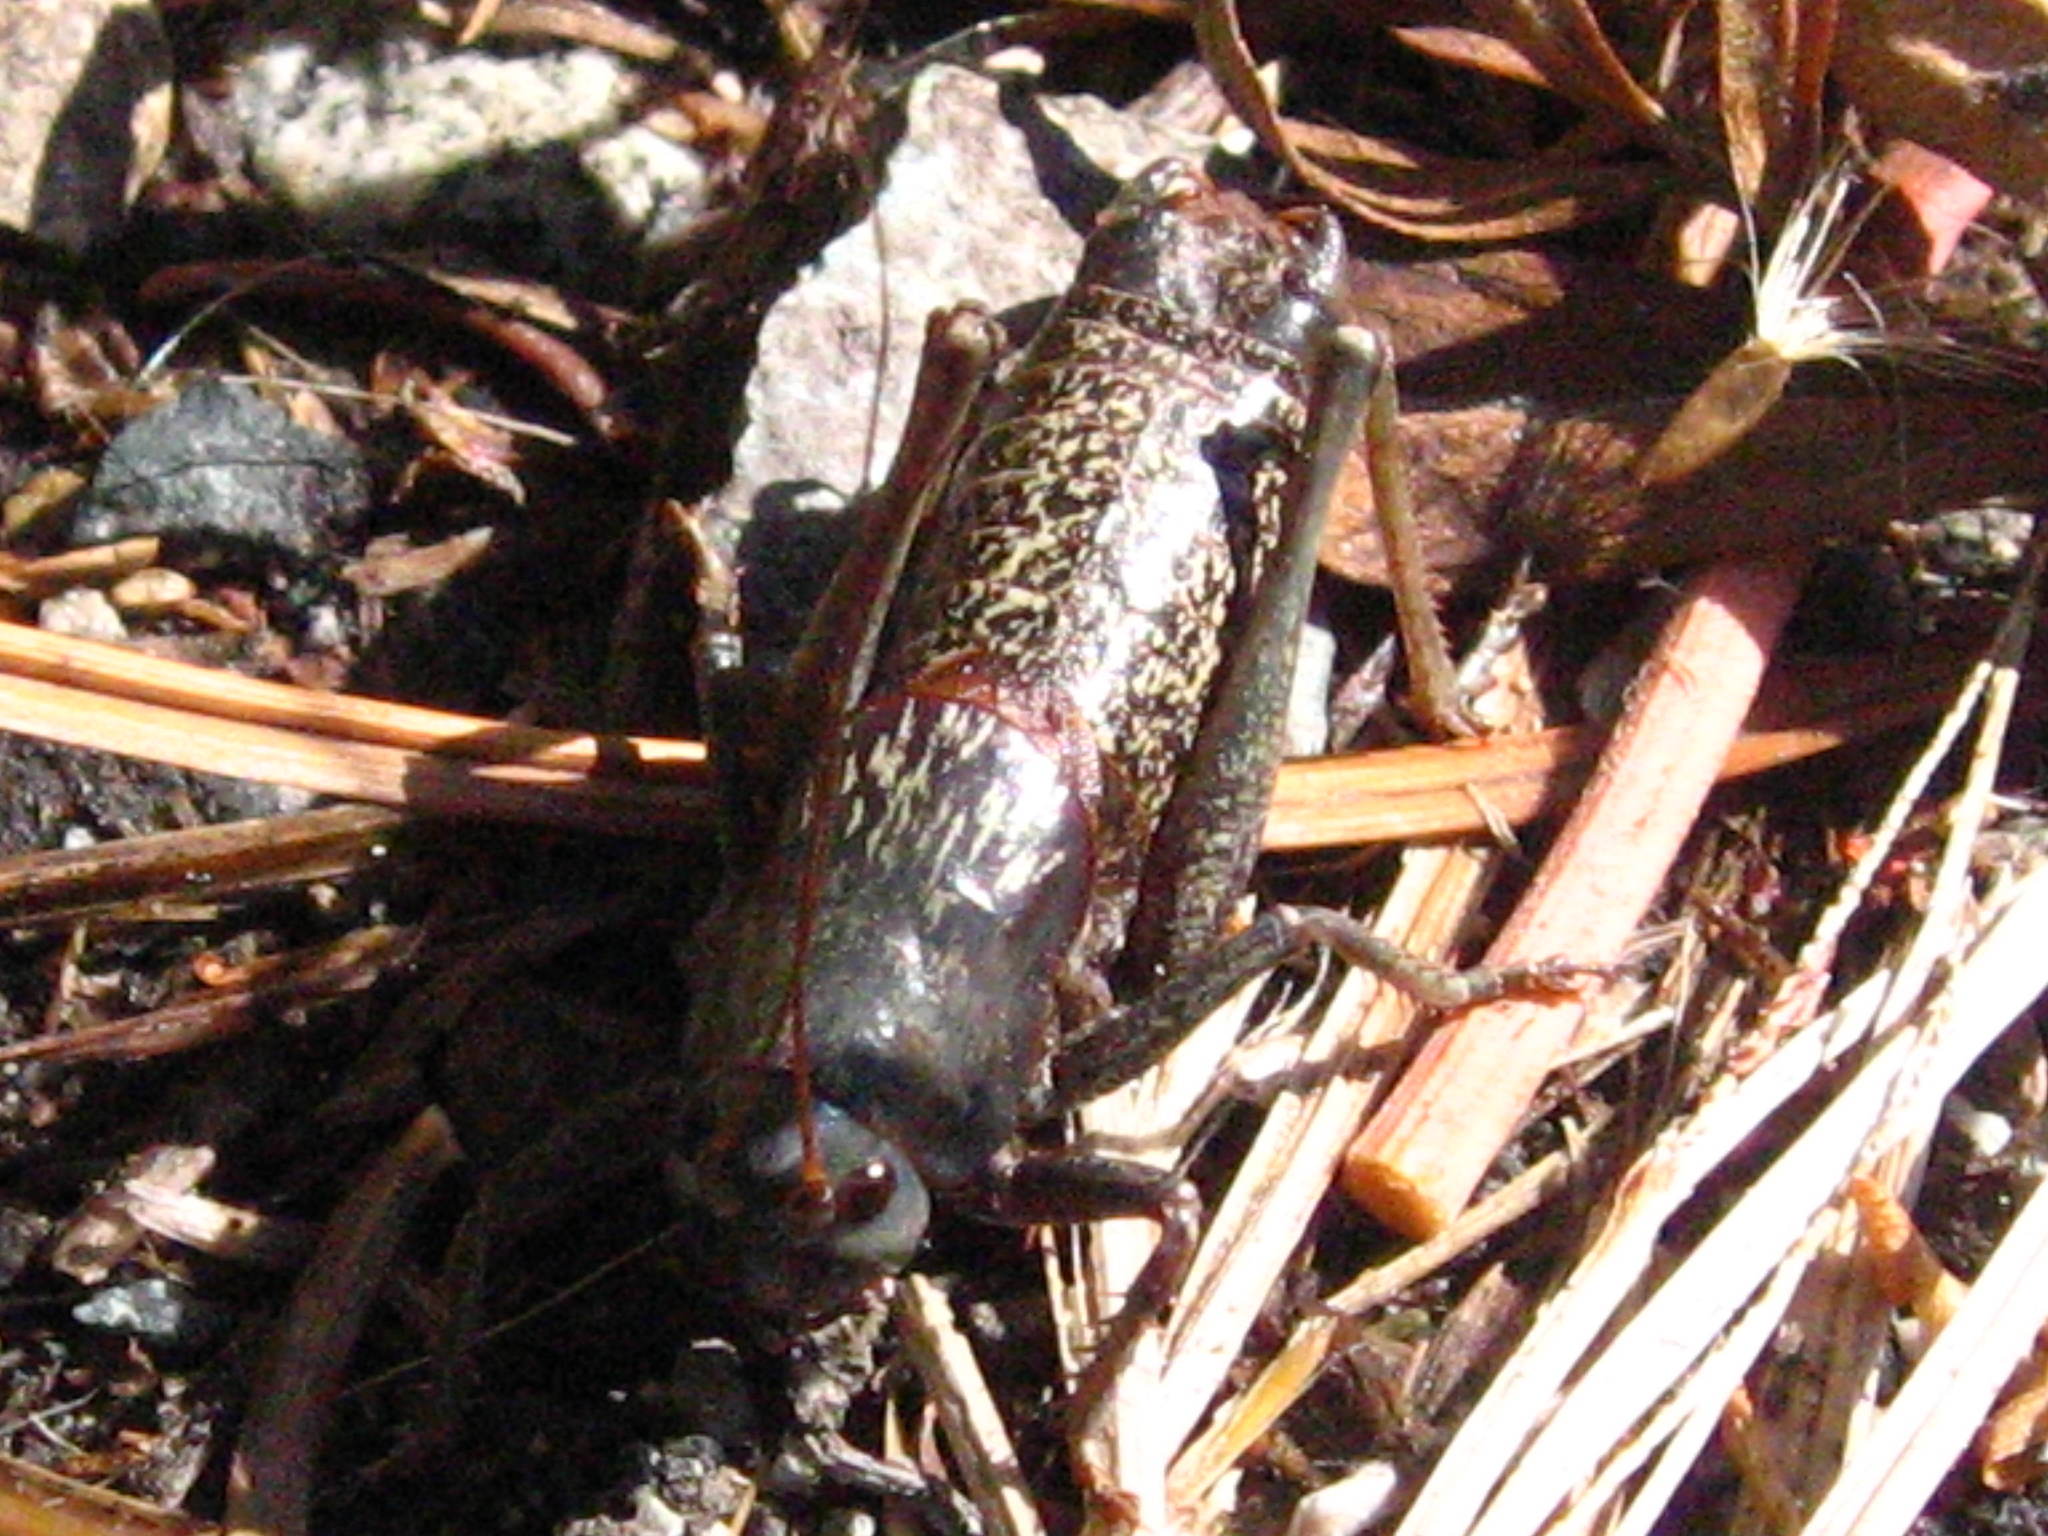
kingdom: Animalia
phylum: Arthropoda
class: Insecta
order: Orthoptera
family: Tettigoniidae
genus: Anabrus
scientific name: Anabrus simplex
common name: Mormon cricket
